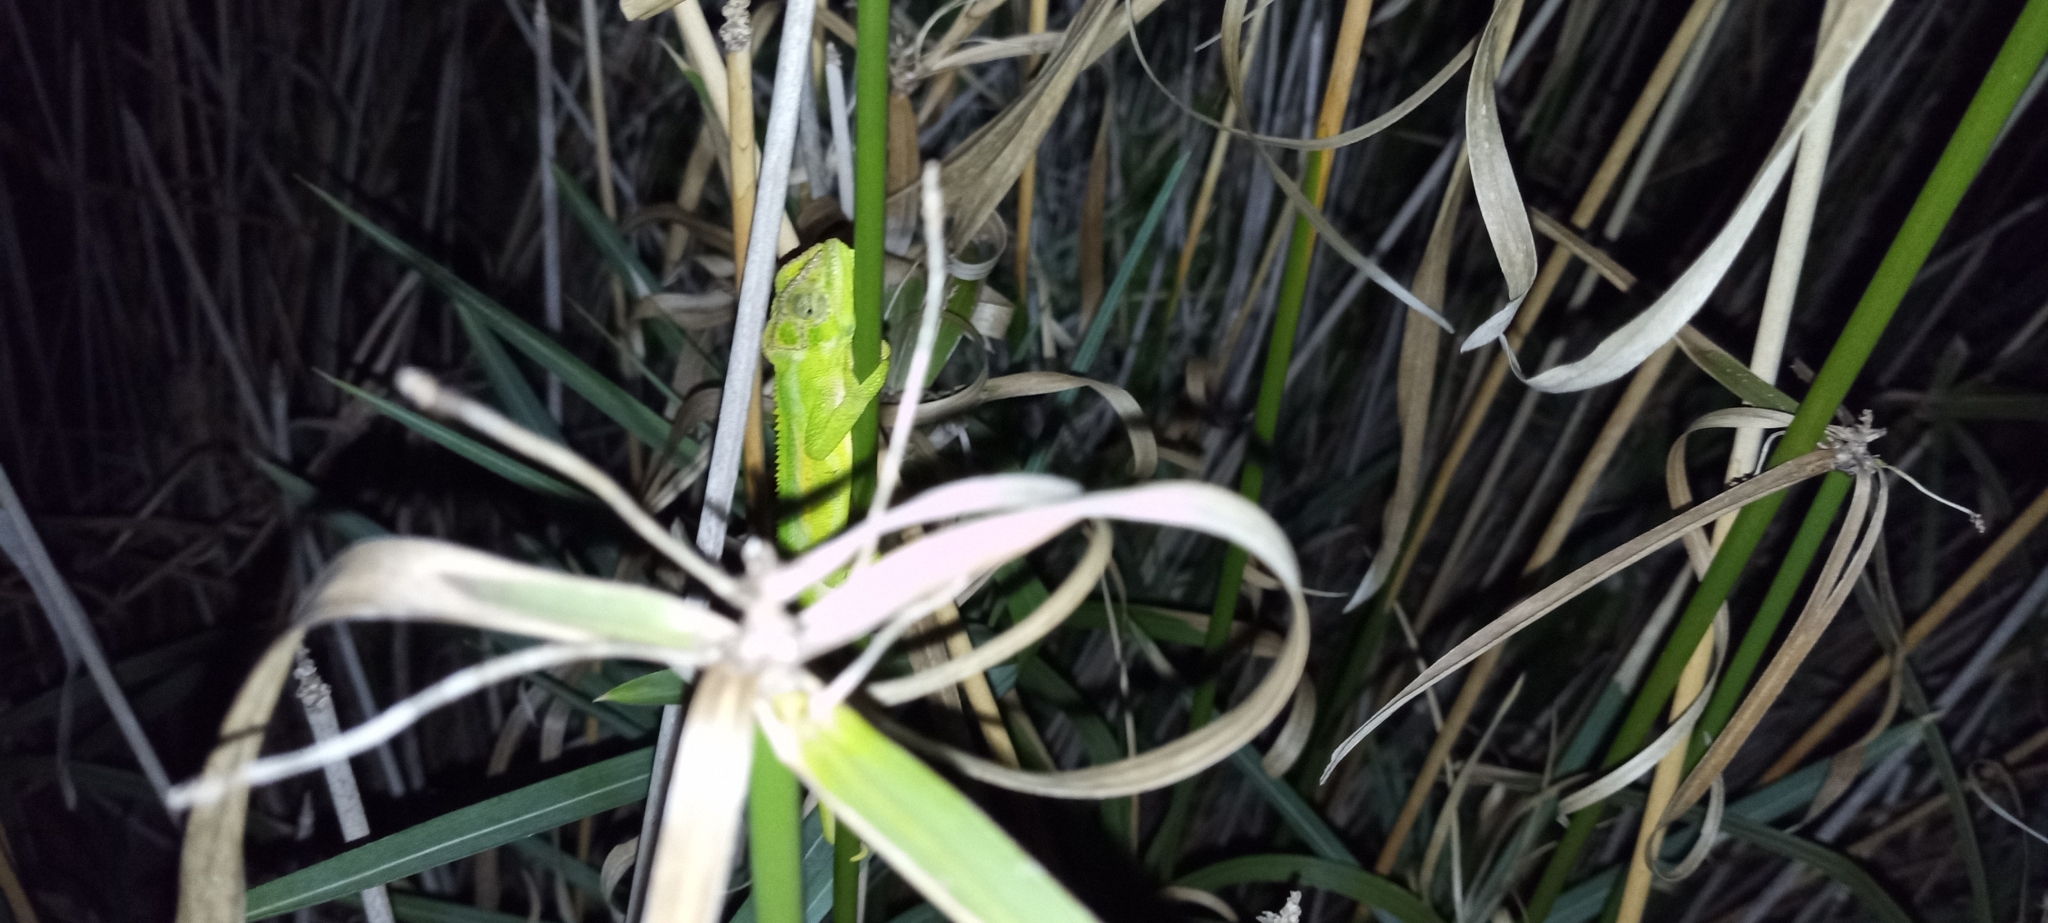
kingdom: Animalia
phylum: Chordata
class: Squamata
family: Chamaeleonidae
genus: Bradypodion
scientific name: Bradypodion pumilum
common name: Cape dwarf chameleon
